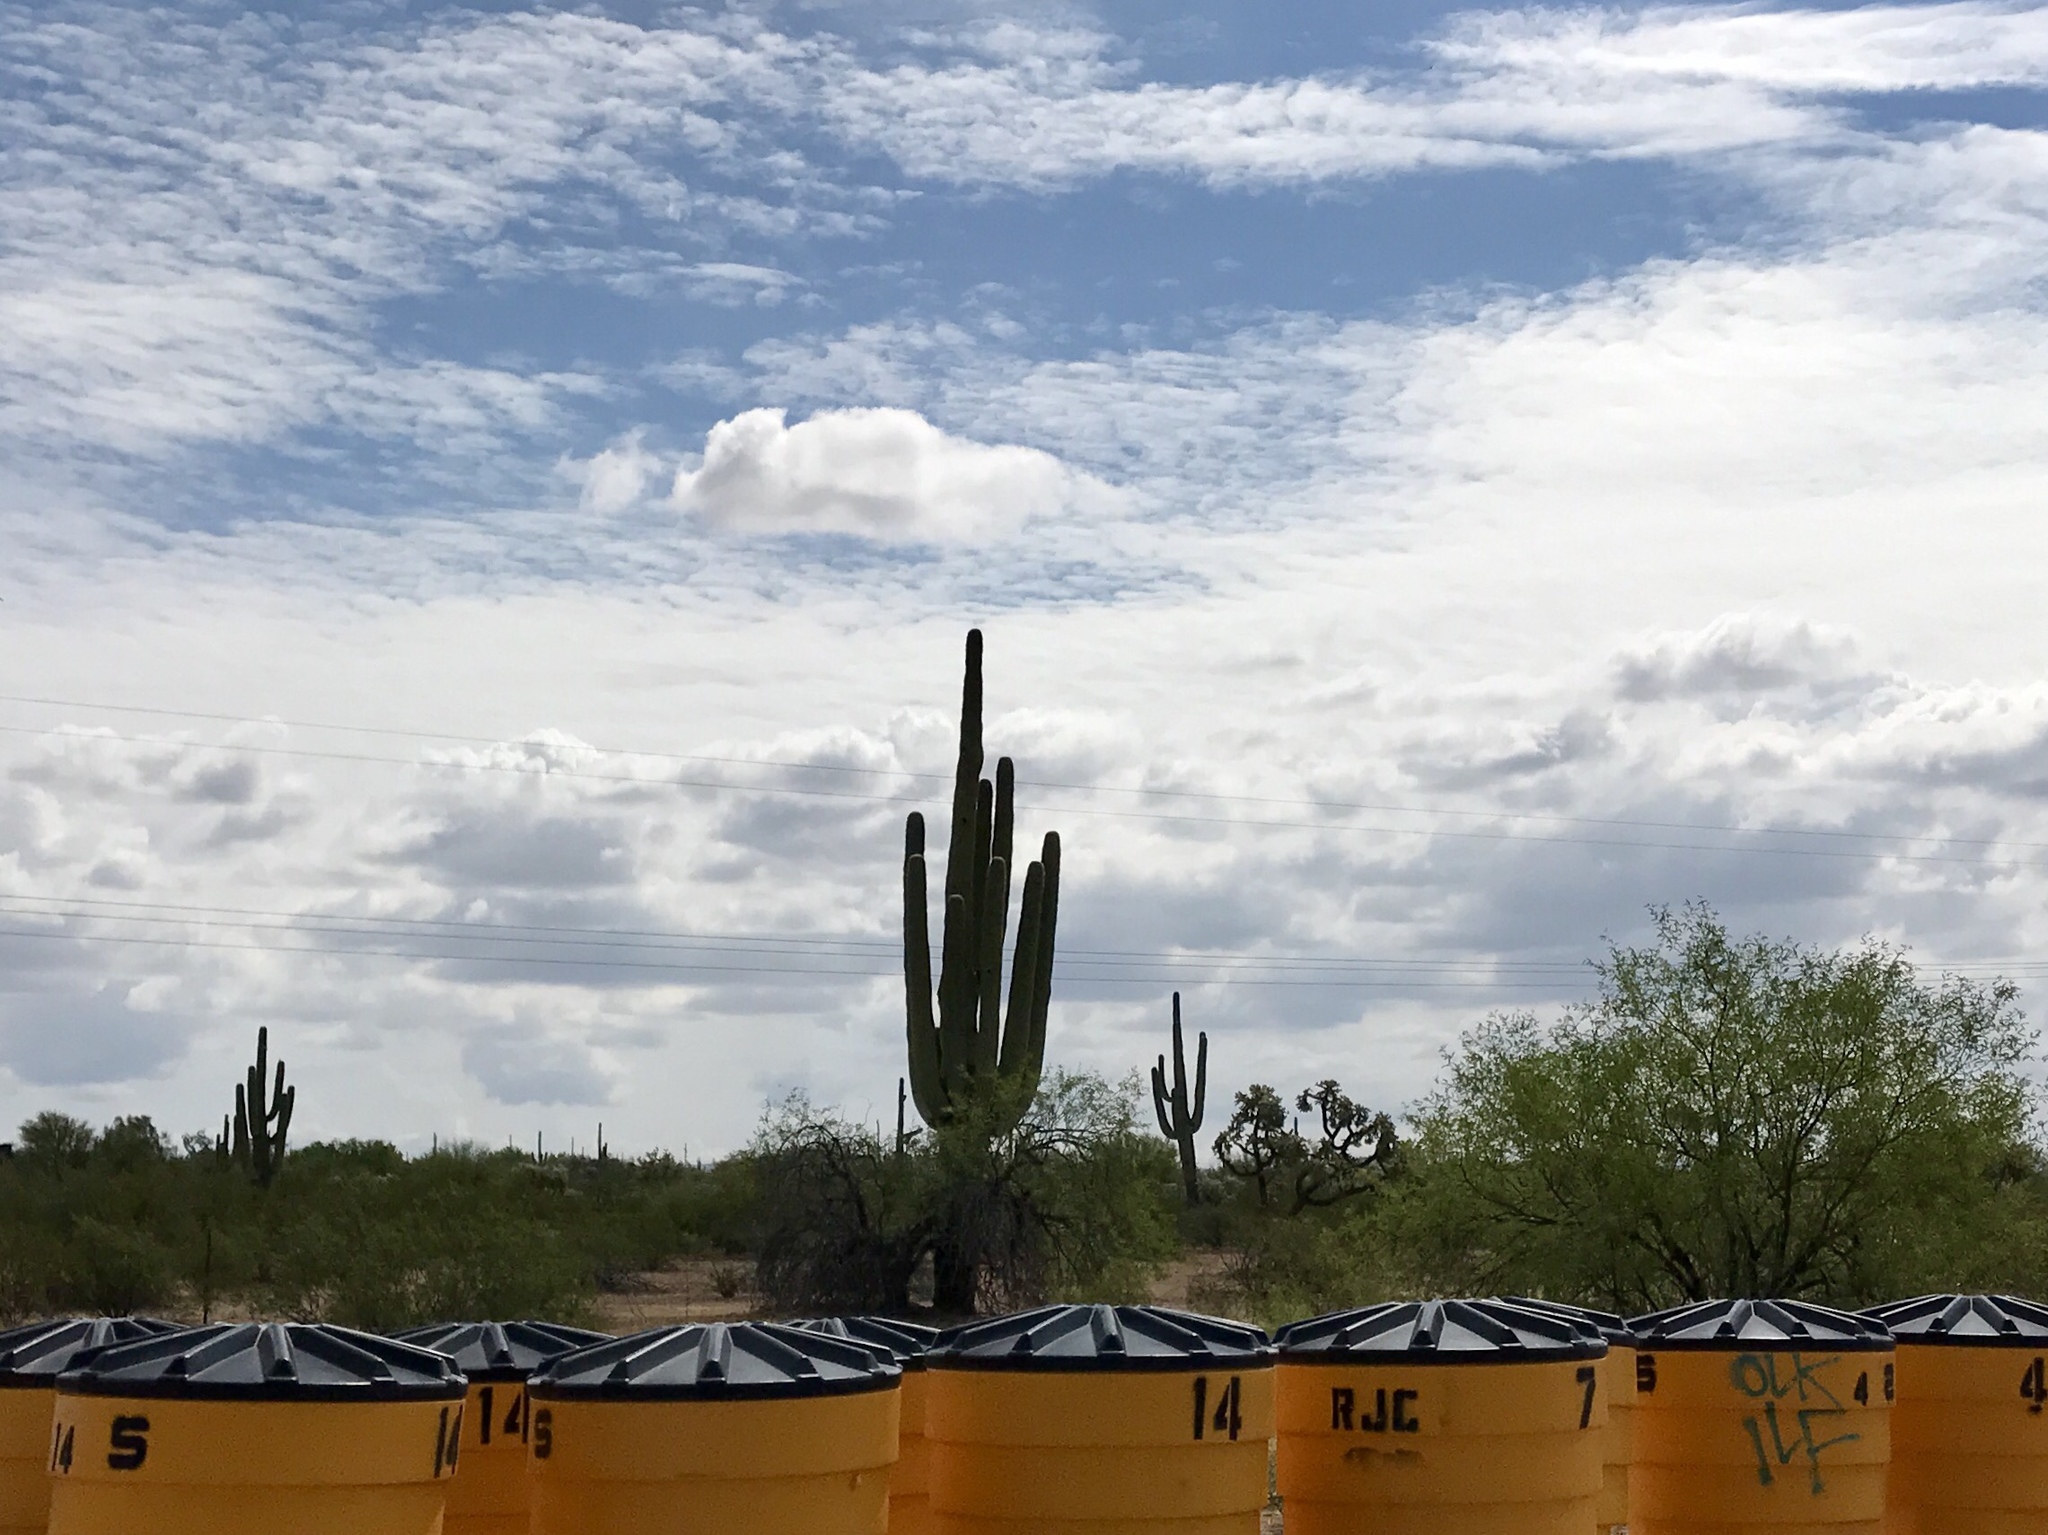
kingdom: Plantae
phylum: Tracheophyta
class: Magnoliopsida
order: Caryophyllales
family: Cactaceae
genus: Carnegiea
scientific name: Carnegiea gigantea
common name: Saguaro
